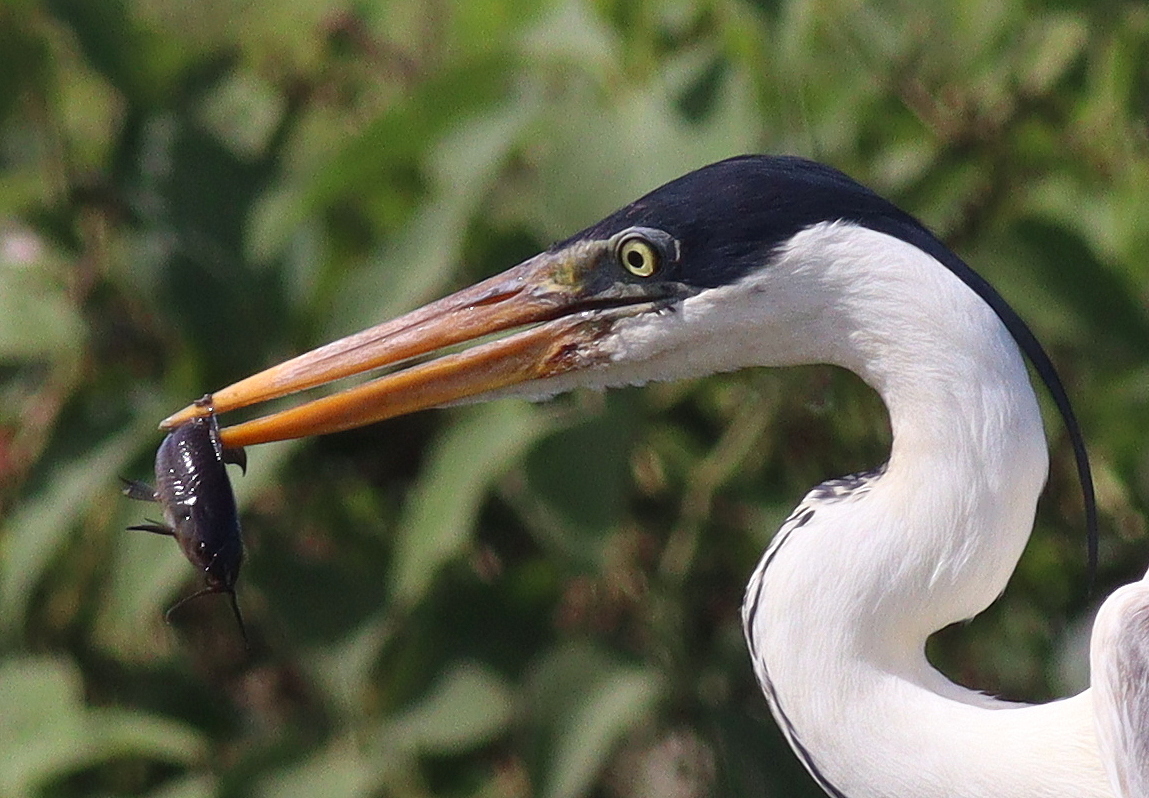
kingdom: Animalia
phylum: Chordata
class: Aves
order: Pelecaniformes
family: Ardeidae
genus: Ardea
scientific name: Ardea cocoi
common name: Cocoi heron
